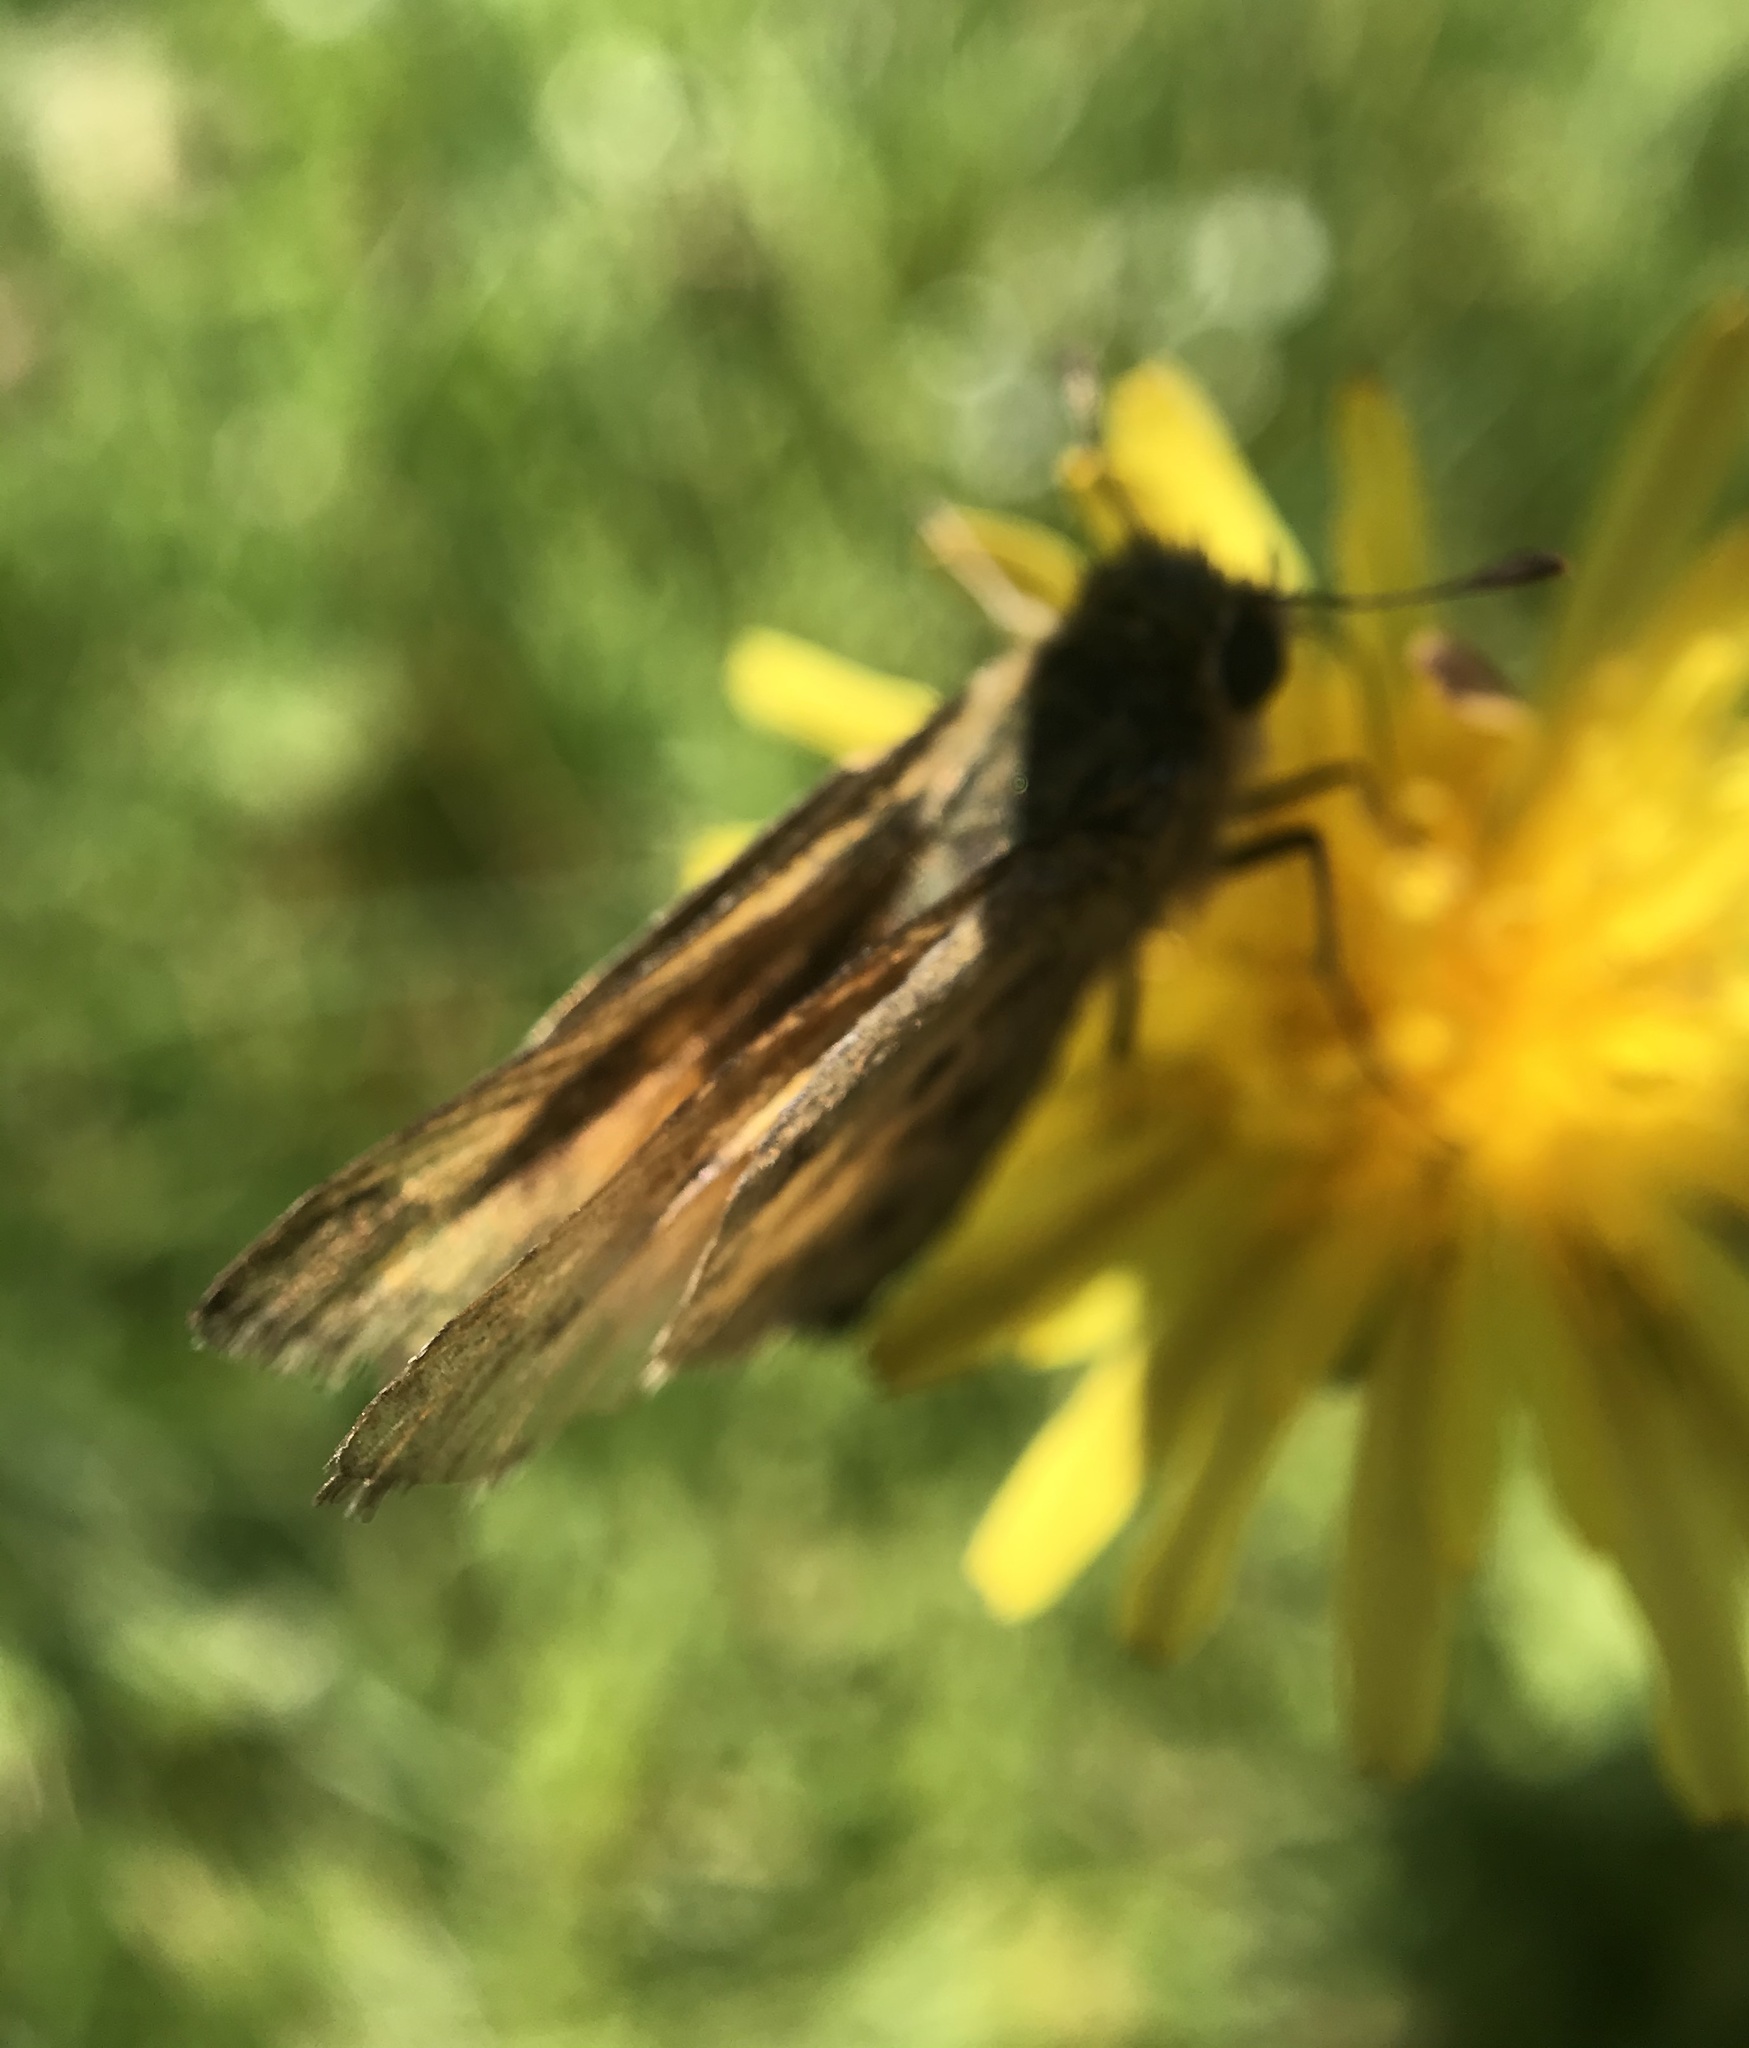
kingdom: Animalia
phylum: Arthropoda
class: Insecta
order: Lepidoptera
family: Hesperiidae
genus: Hylephila
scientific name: Hylephila phyleus
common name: Fiery skipper
